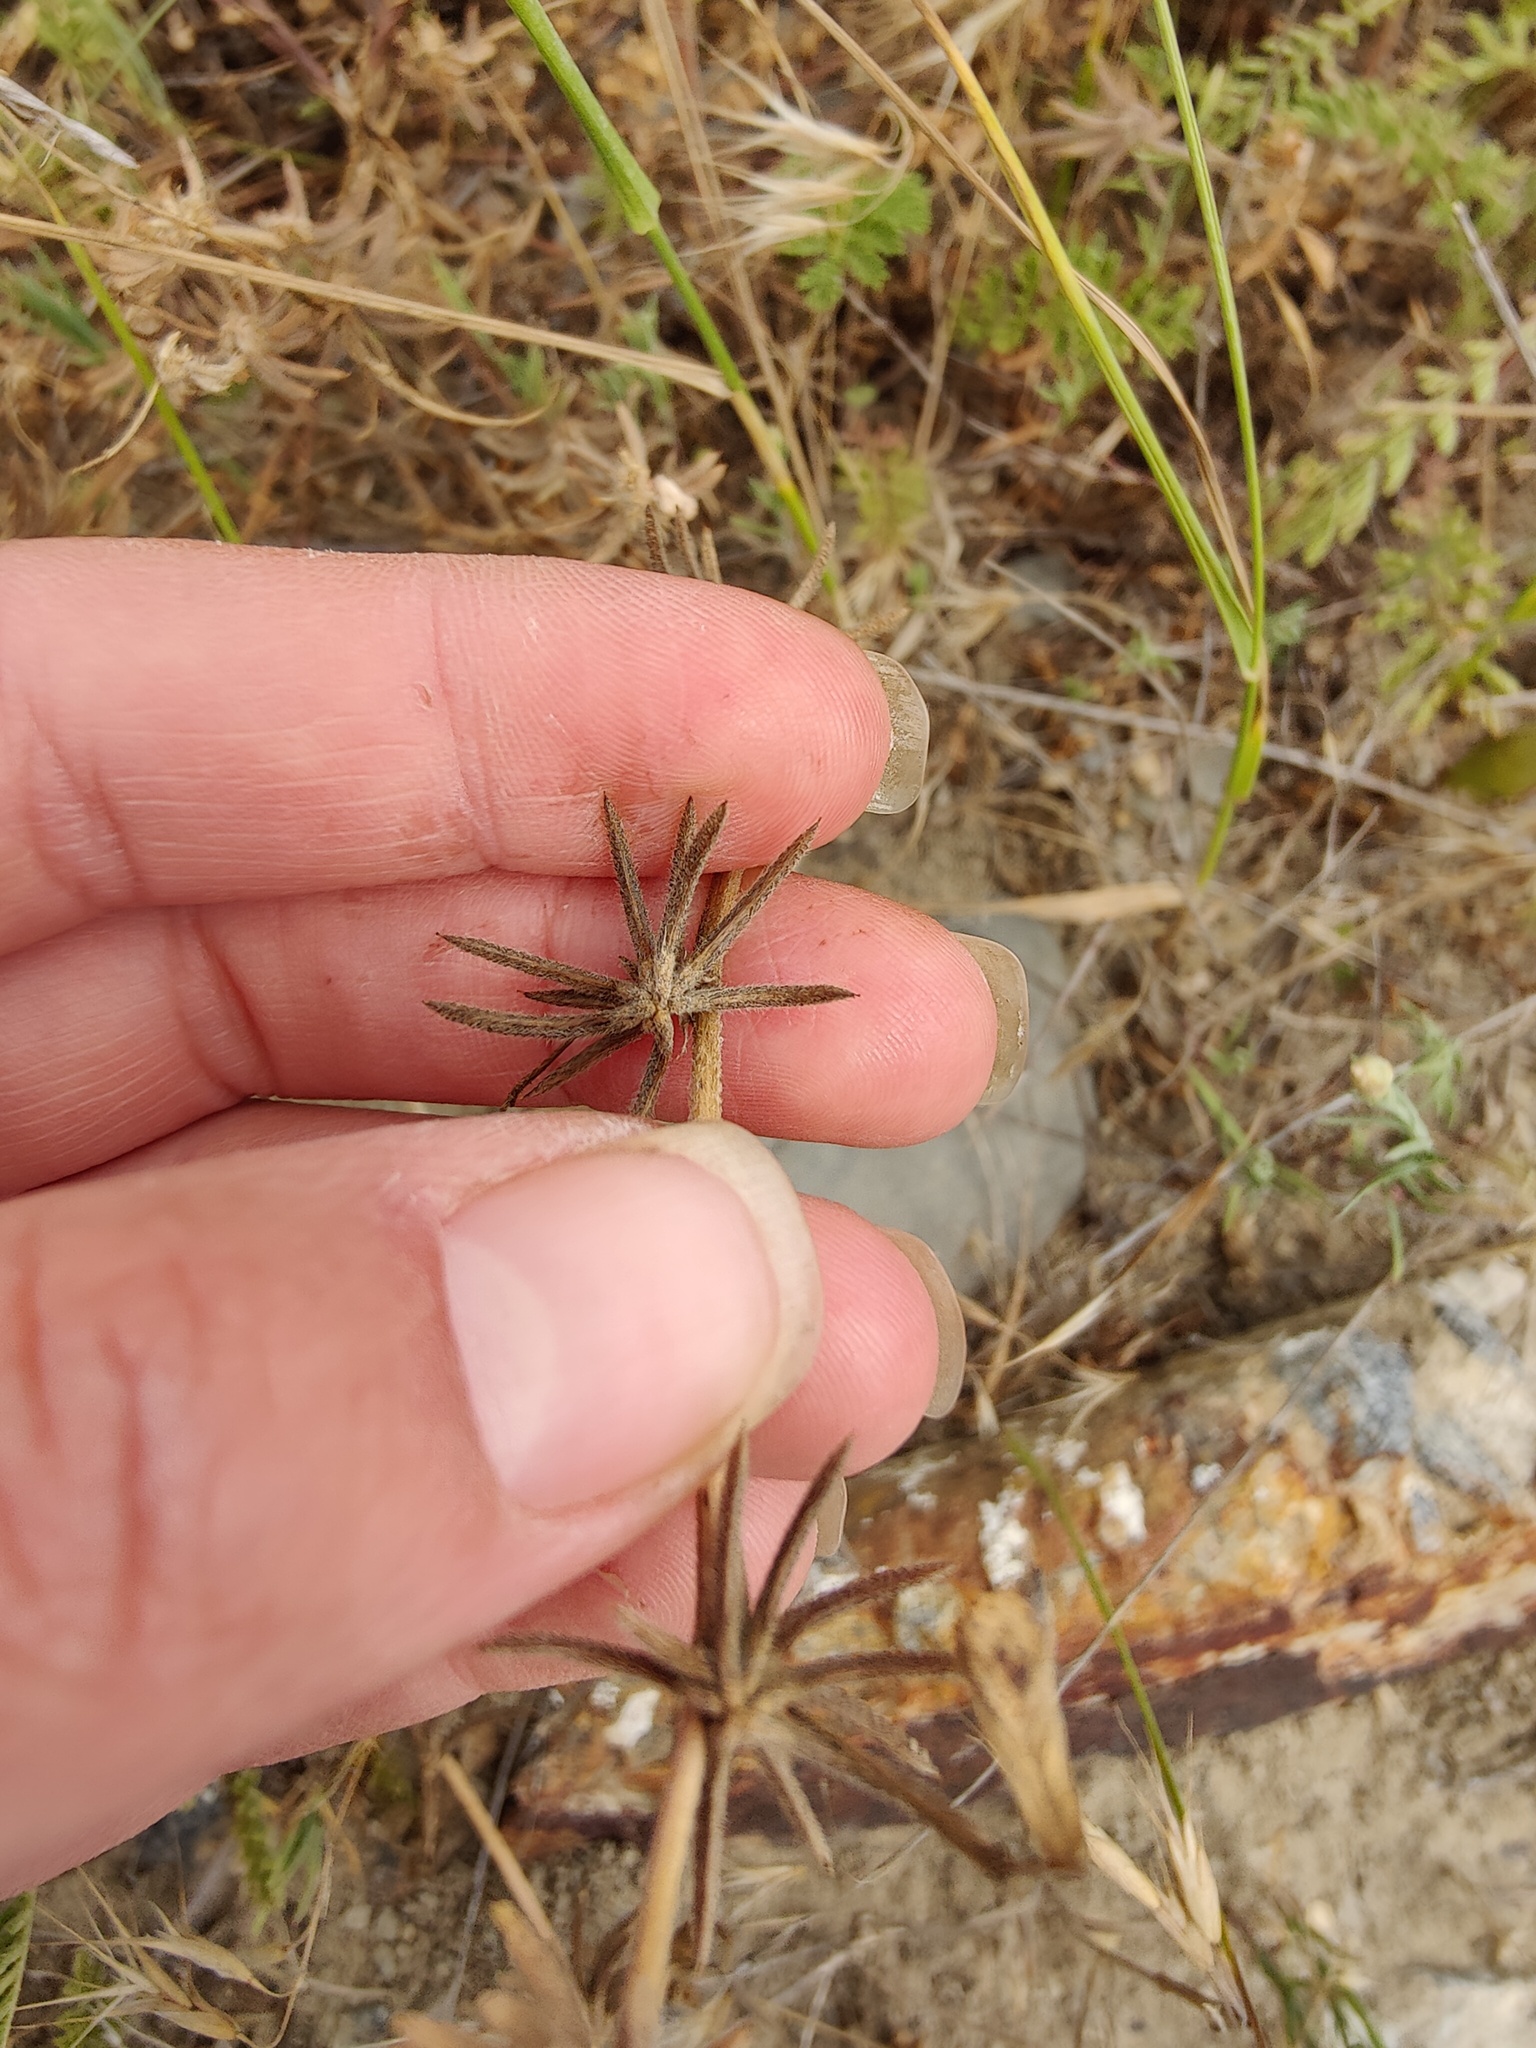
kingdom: Plantae
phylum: Tracheophyta
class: Magnoliopsida
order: Fabales
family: Fabaceae
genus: Medicago
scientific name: Medicago monspeliaca
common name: Hairy medick
